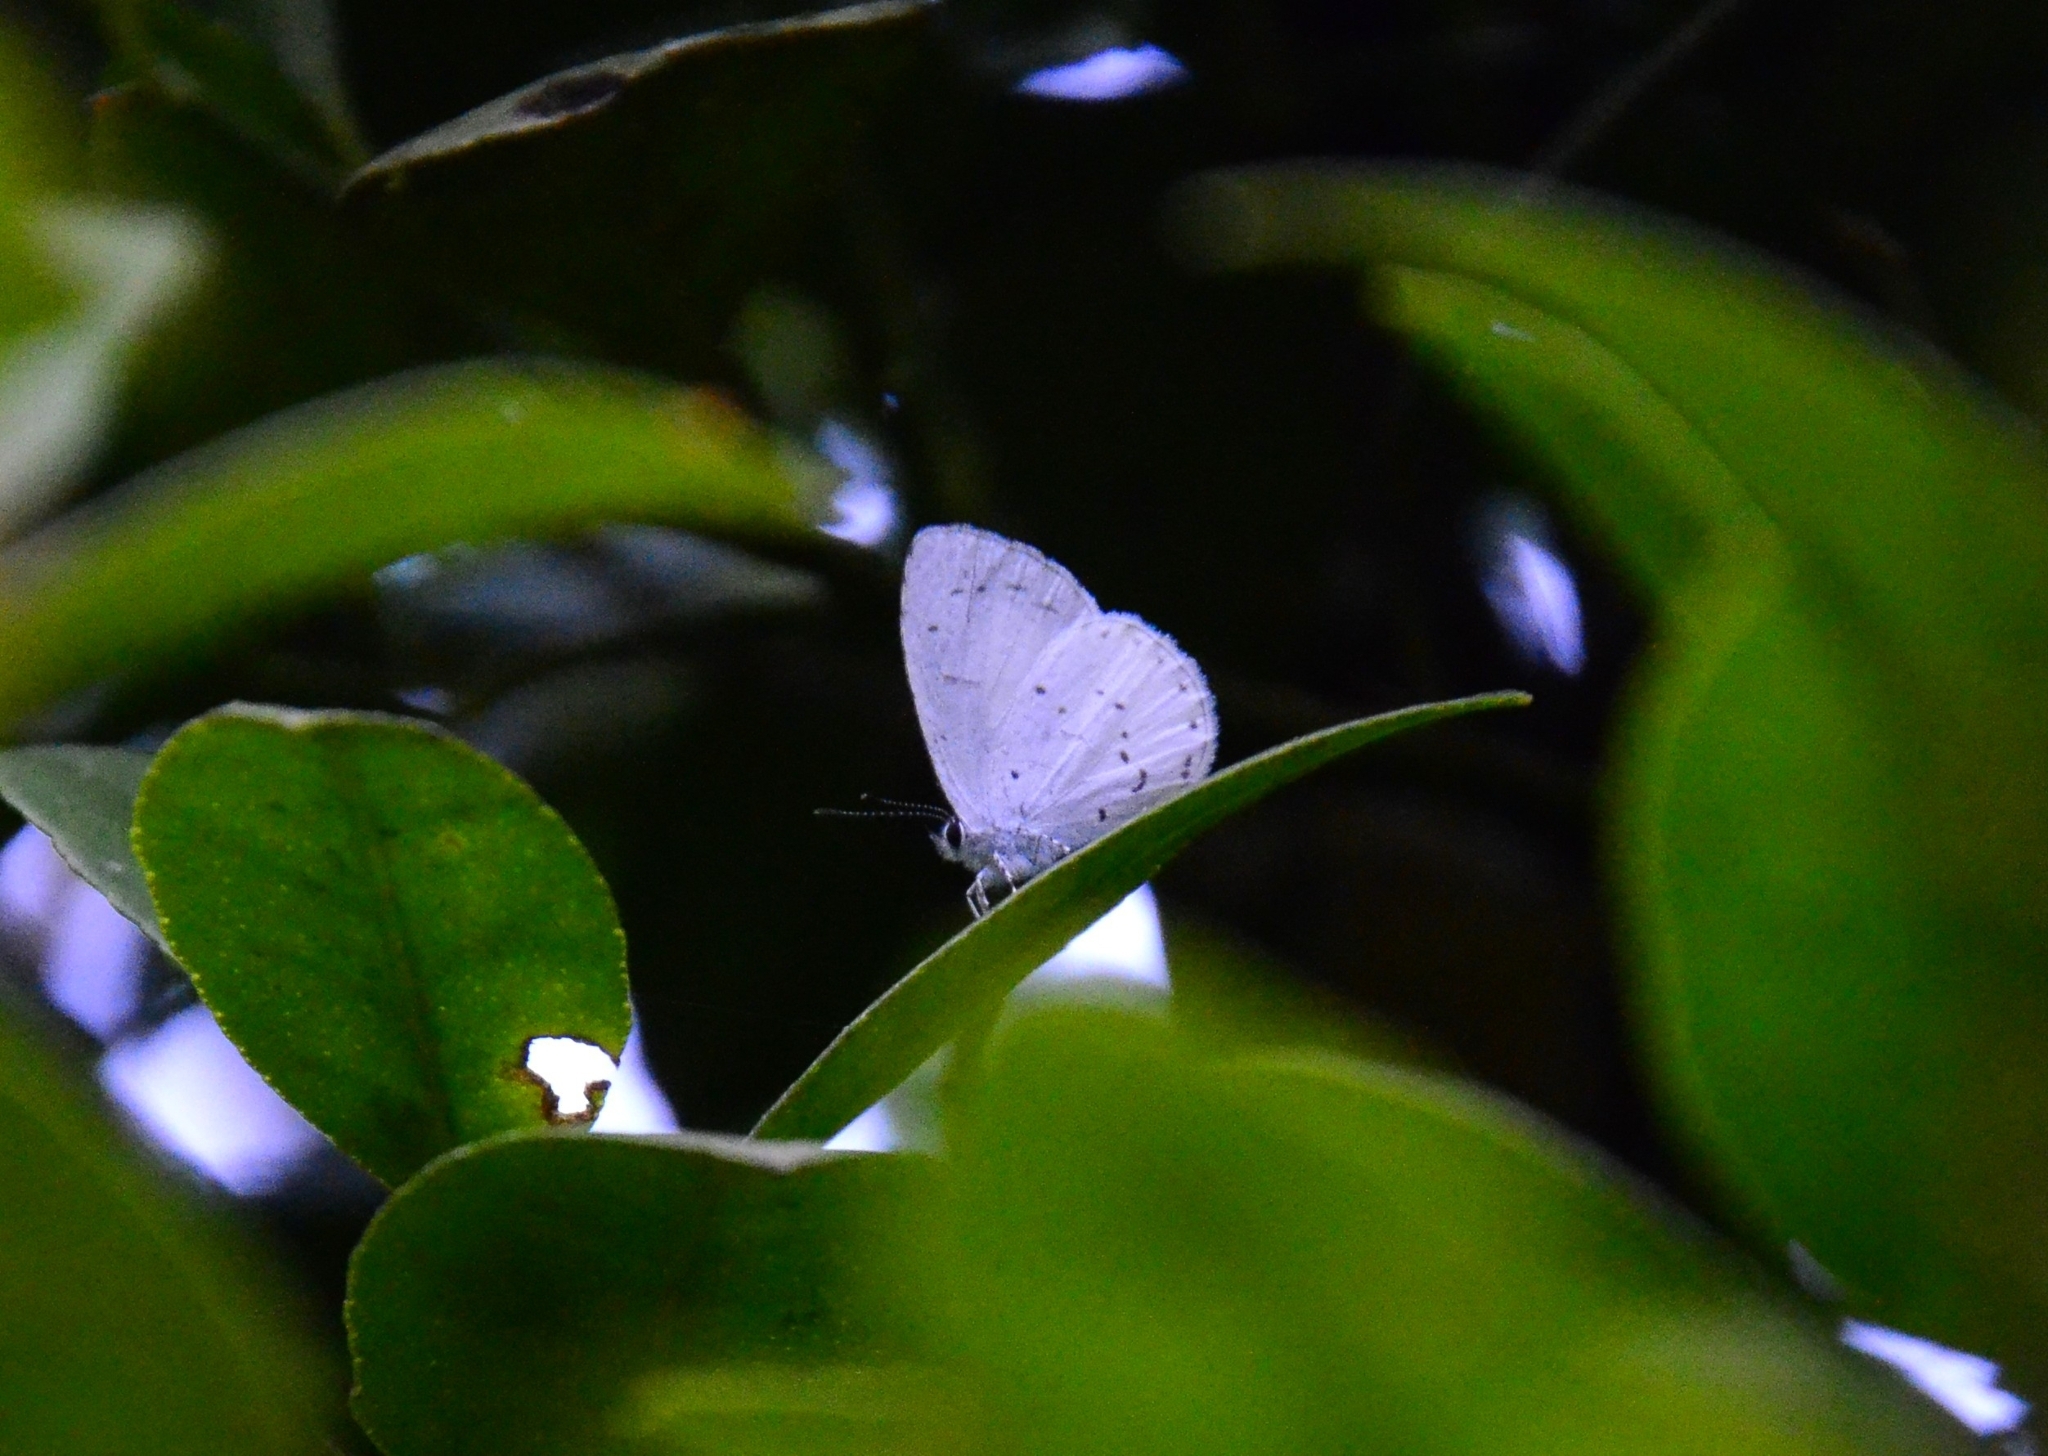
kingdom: Animalia
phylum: Arthropoda
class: Insecta
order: Lepidoptera
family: Lycaenidae
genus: Udara
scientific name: Udara akasa
